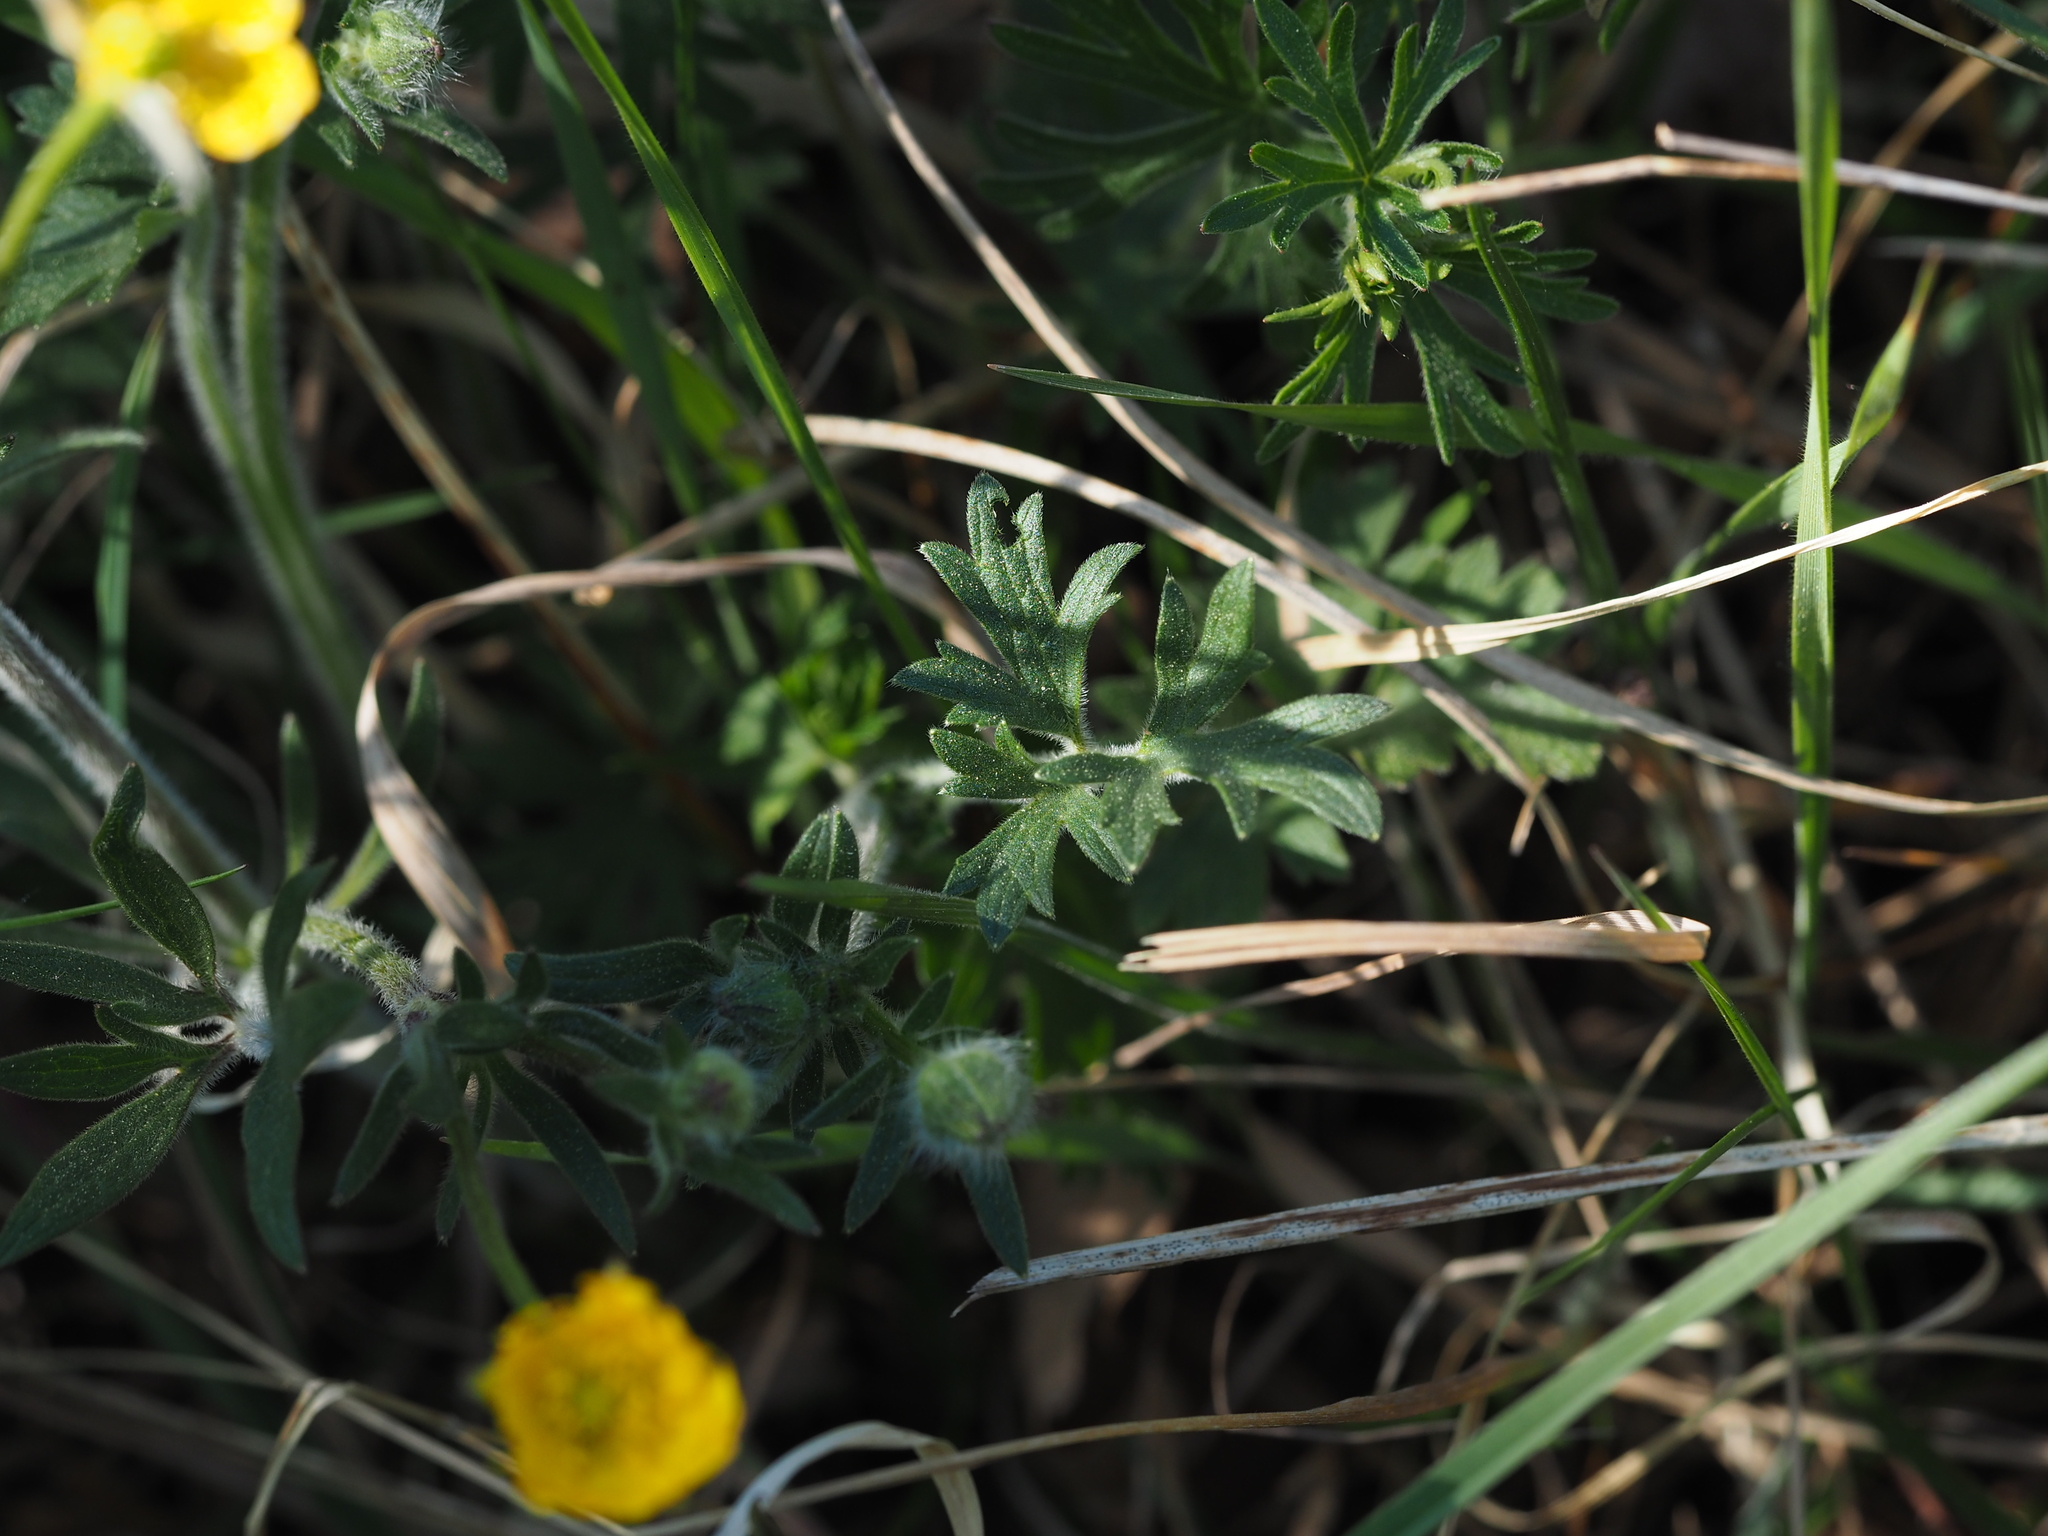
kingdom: Plantae
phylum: Tracheophyta
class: Magnoliopsida
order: Ranunculales
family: Ranunculaceae
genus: Ranunculus
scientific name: Ranunculus bulbosus
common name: Bulbous buttercup
